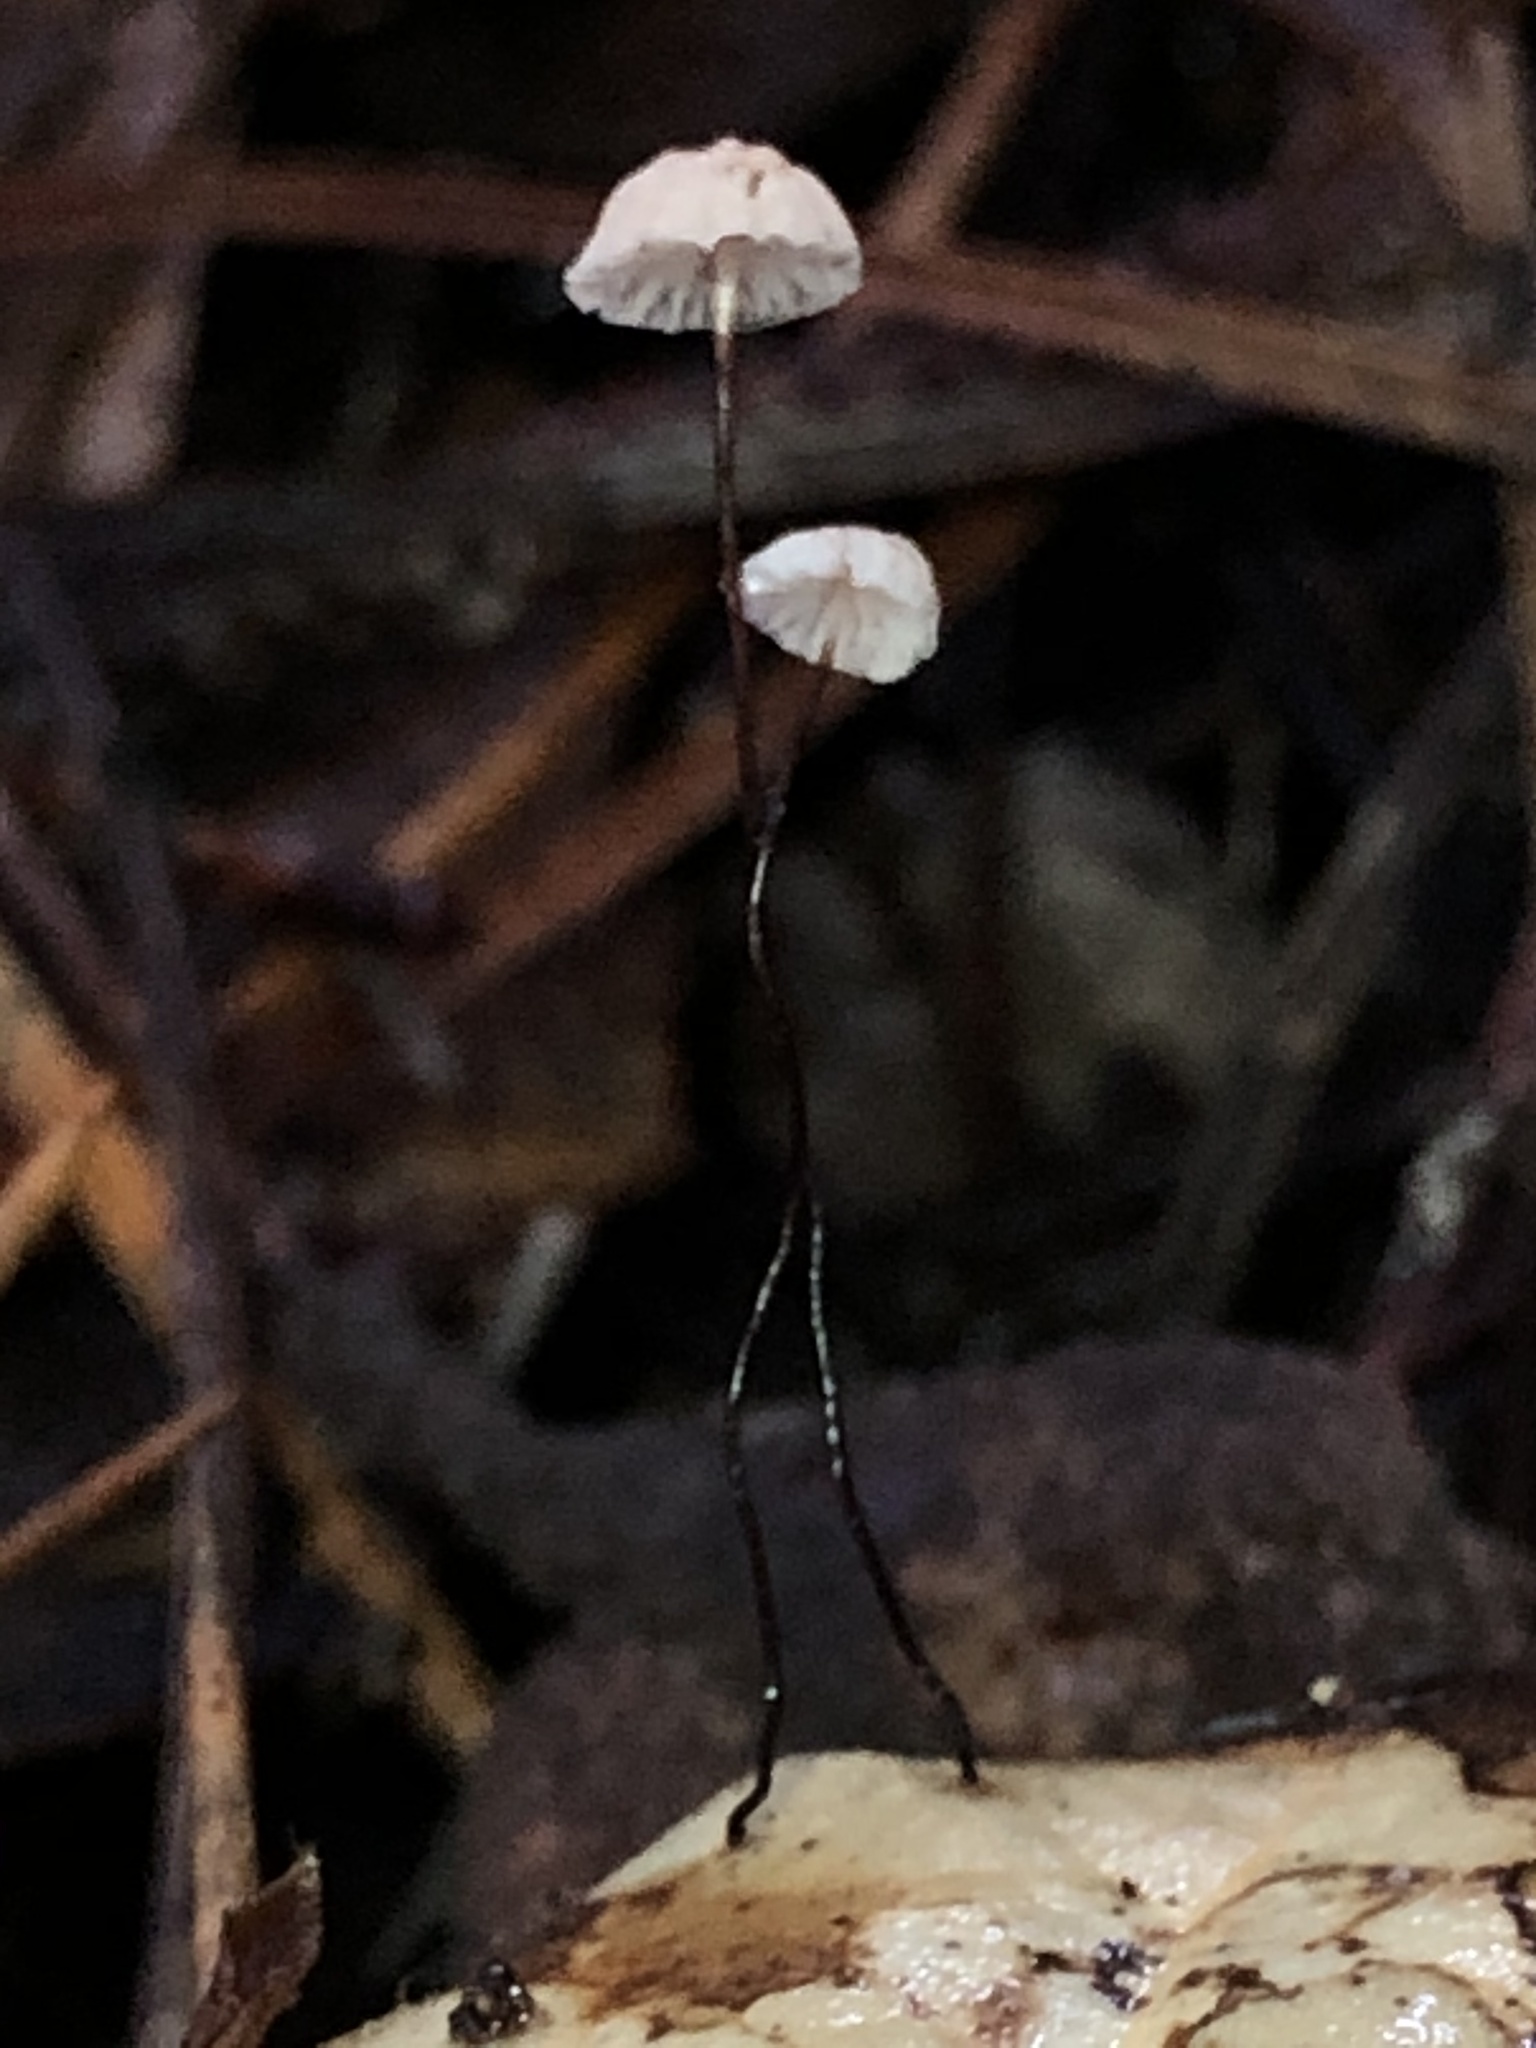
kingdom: Fungi
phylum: Basidiomycota
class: Agaricomycetes
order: Agaricales
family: Omphalotaceae
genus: Collybiopsis
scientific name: Collybiopsis quercophila
